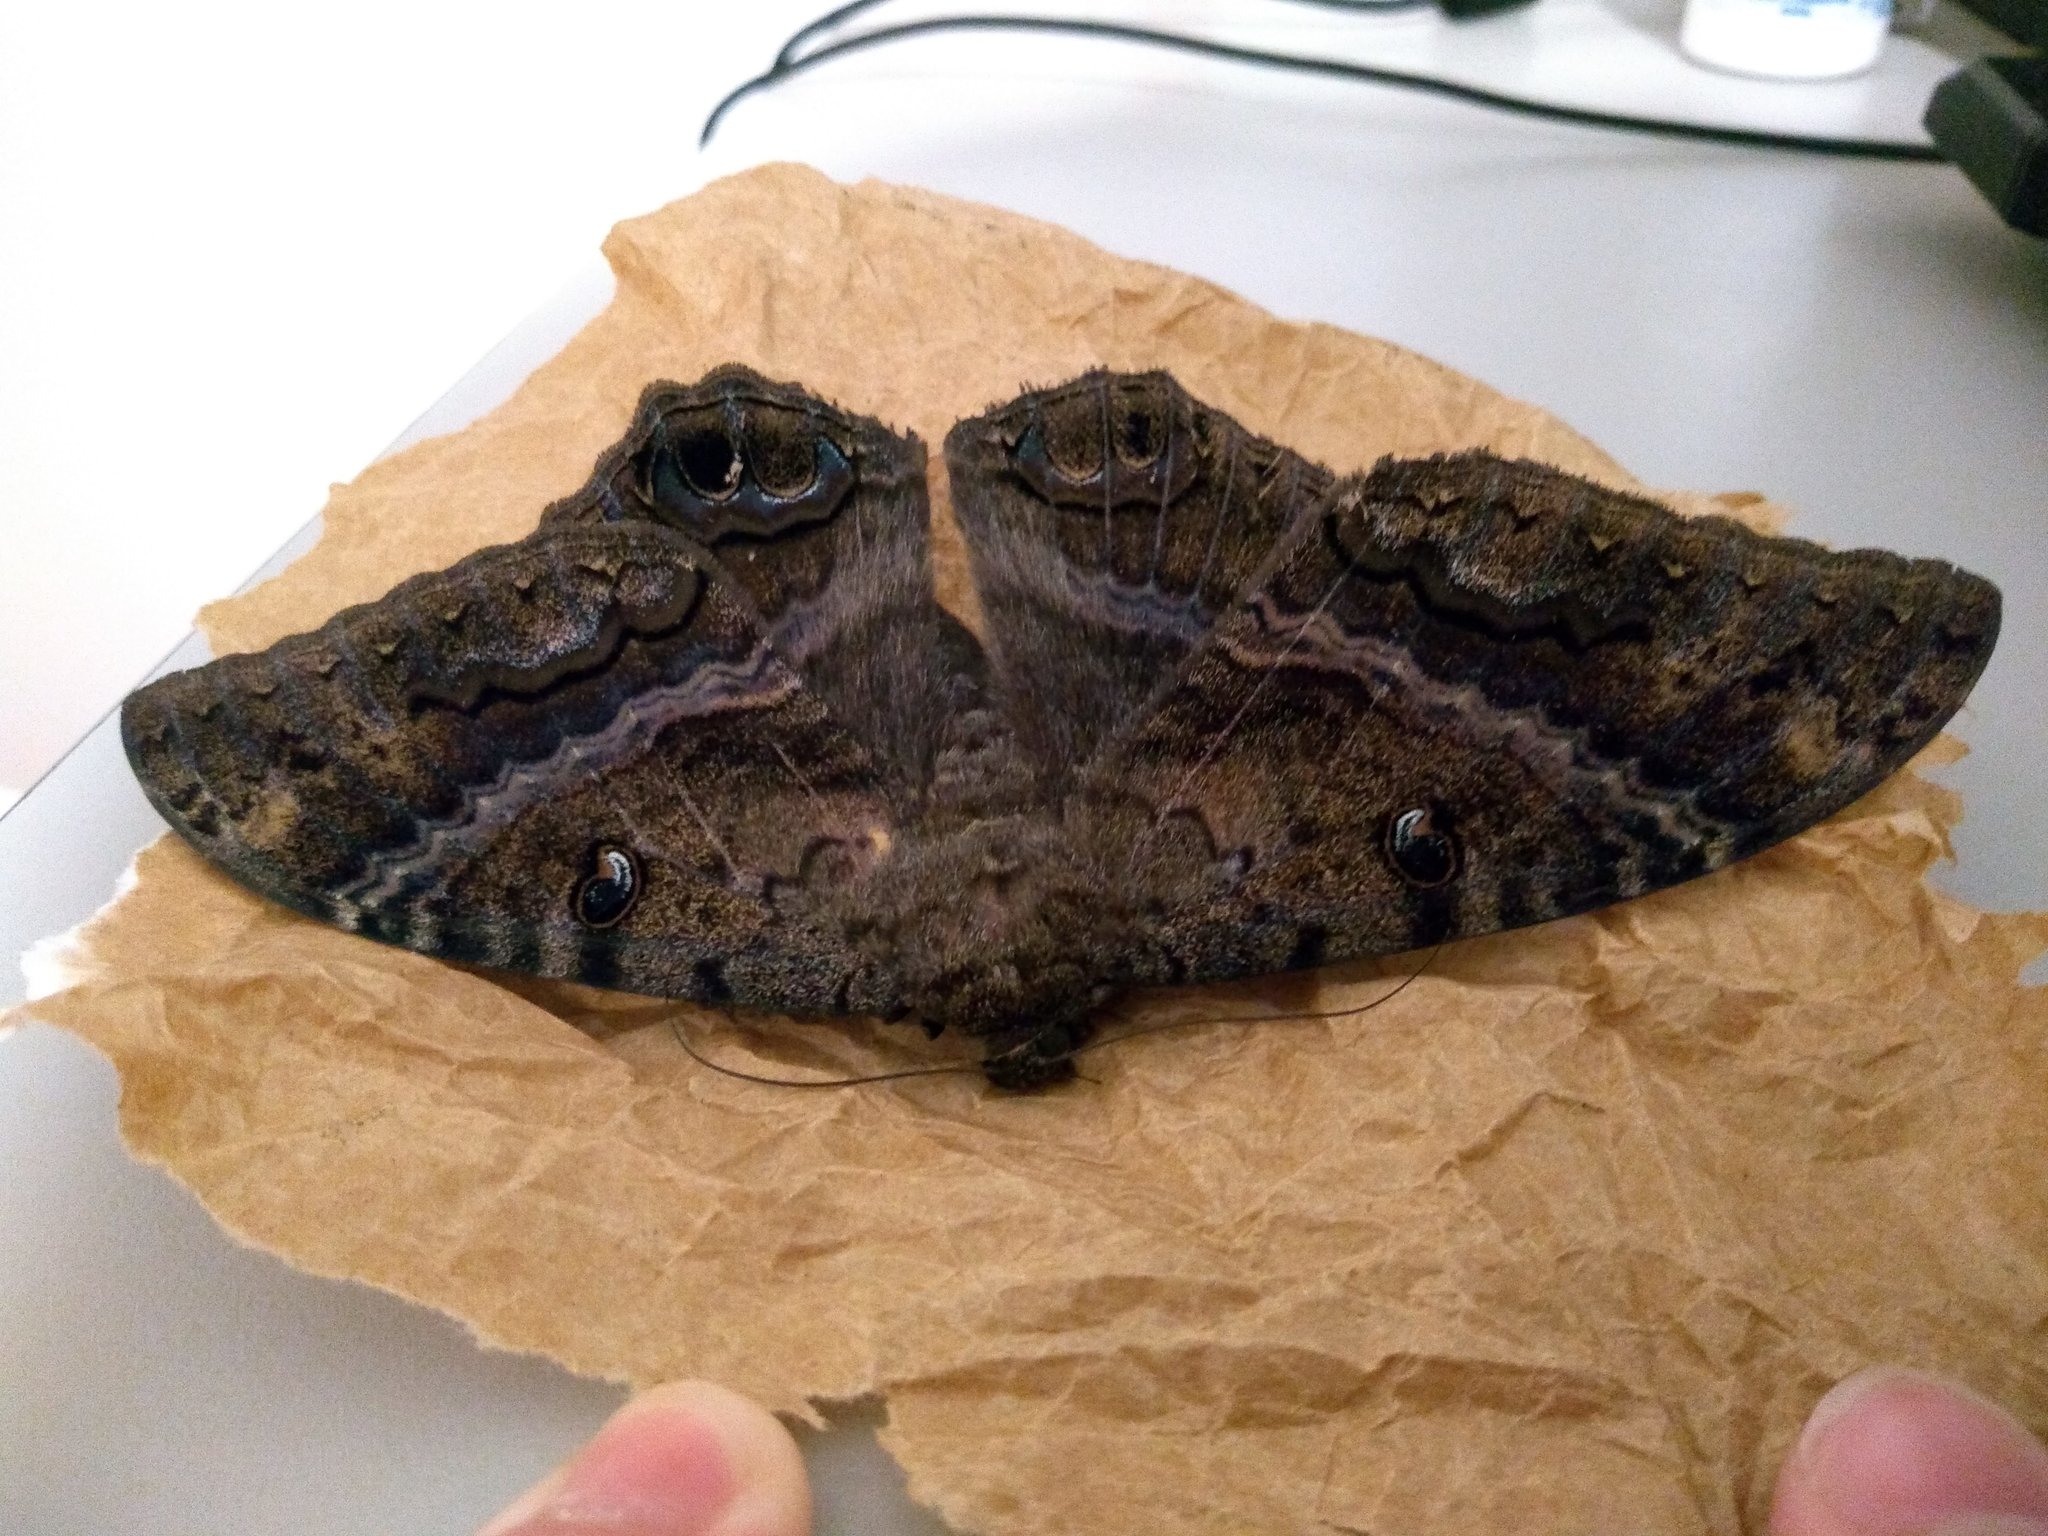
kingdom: Animalia
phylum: Arthropoda
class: Insecta
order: Lepidoptera
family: Erebidae
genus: Ascalapha
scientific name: Ascalapha odorata
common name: Black witch
